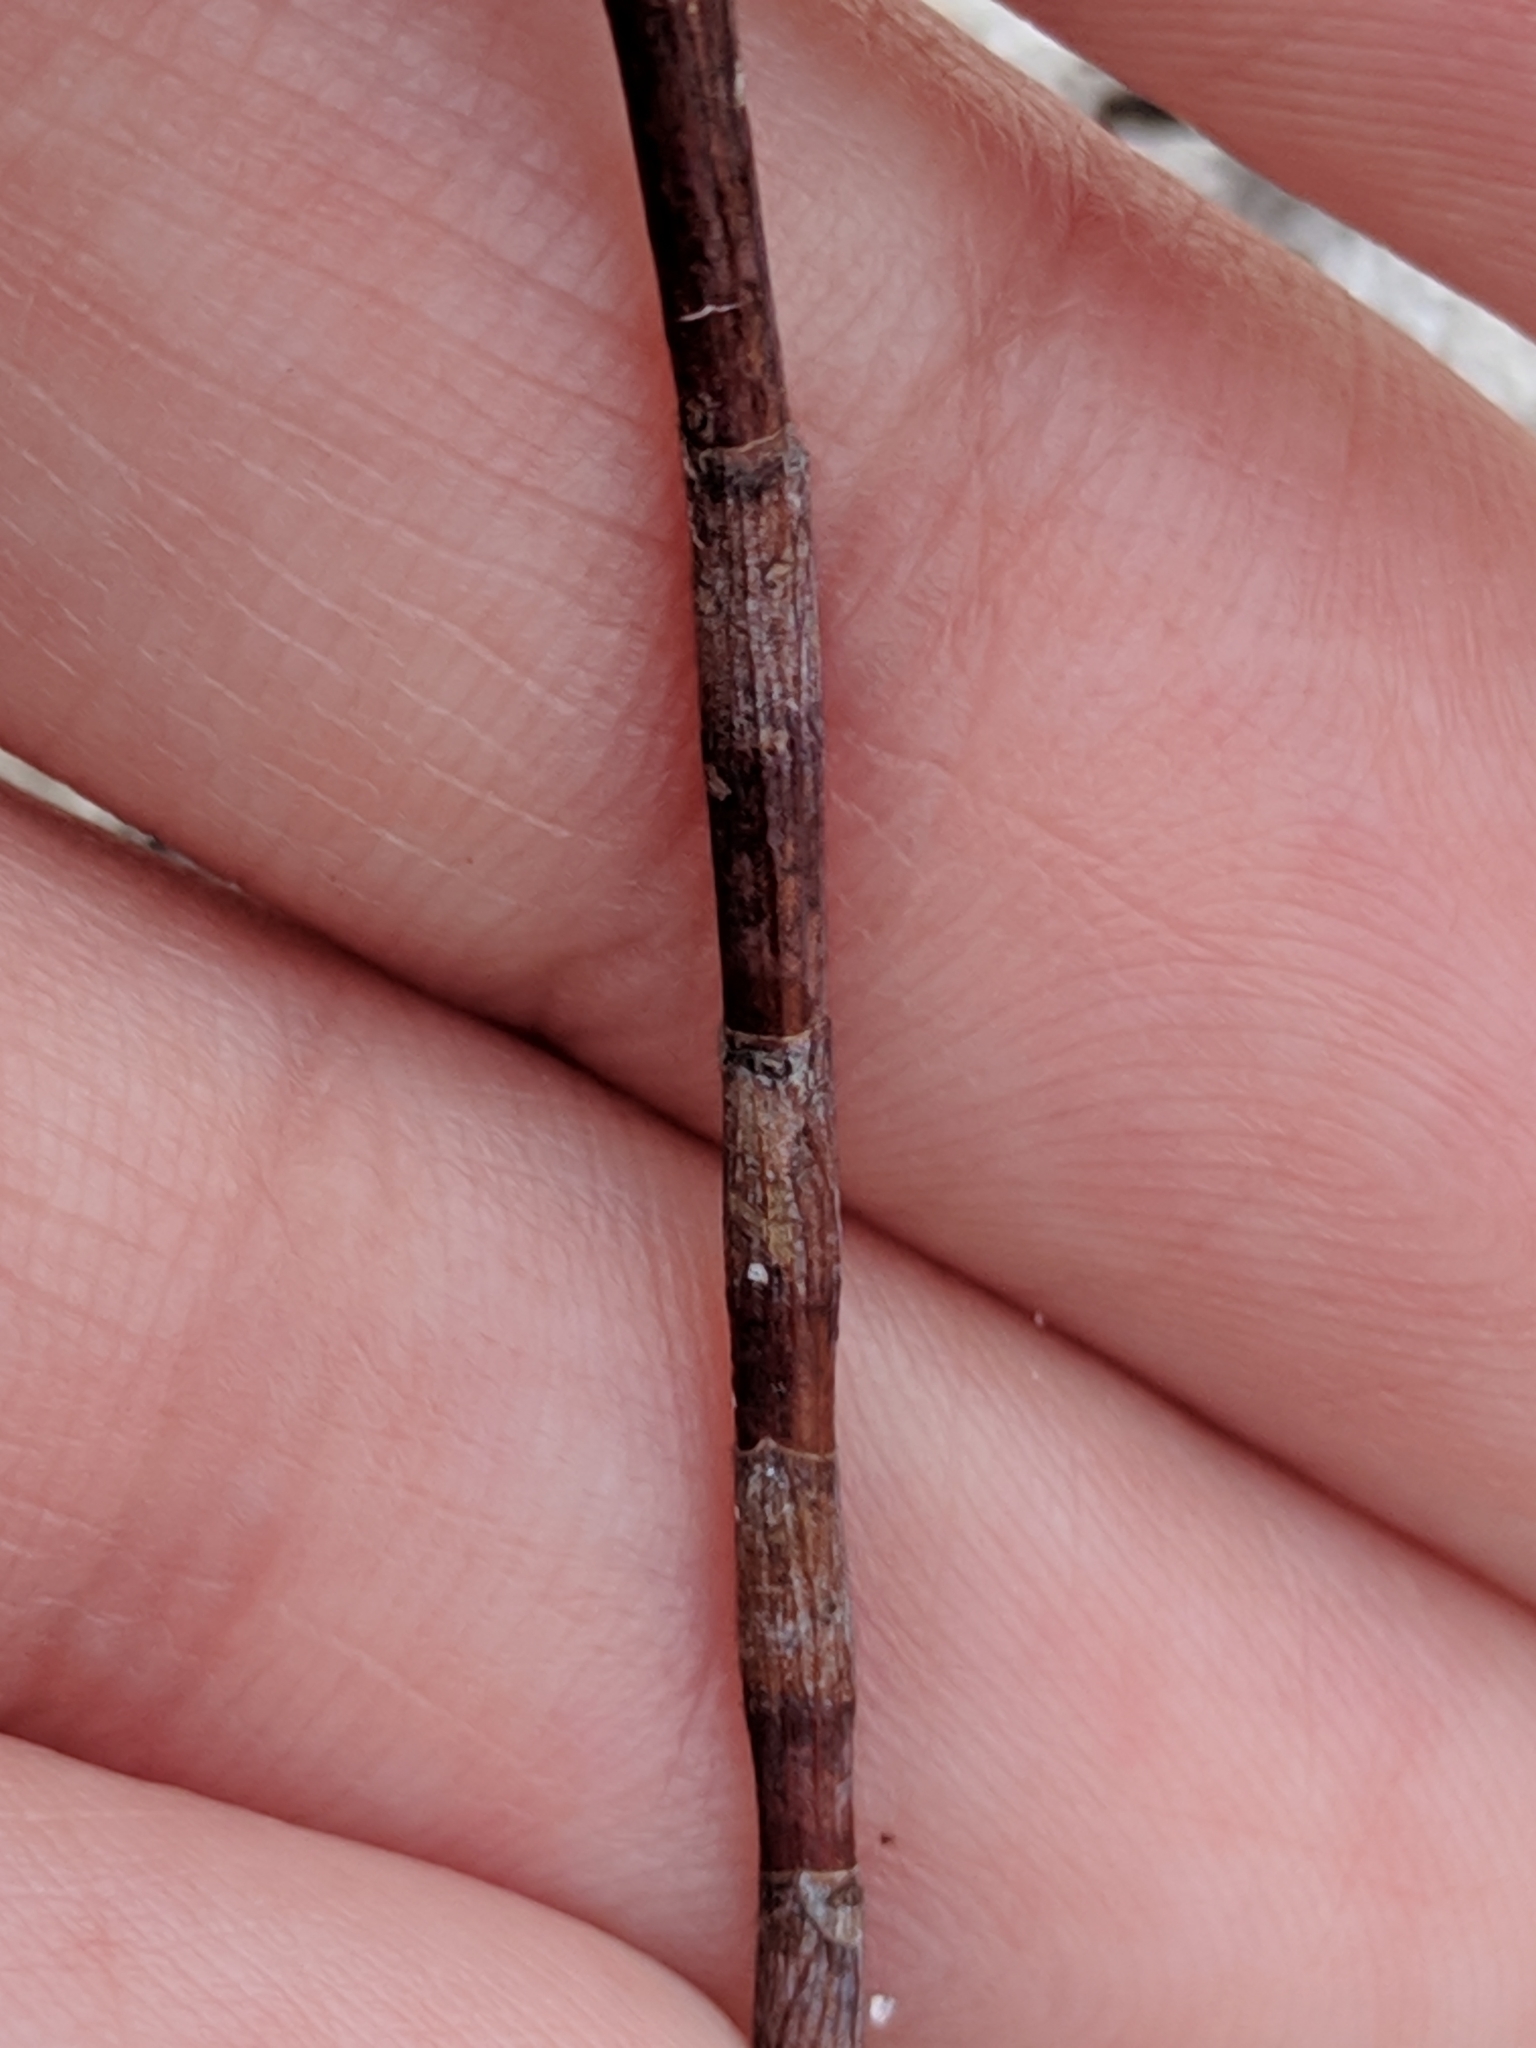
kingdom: Plantae
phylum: Tracheophyta
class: Magnoliopsida
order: Caryophyllales
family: Polygonaceae
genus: Polygonella
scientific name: Polygonella gracilis
